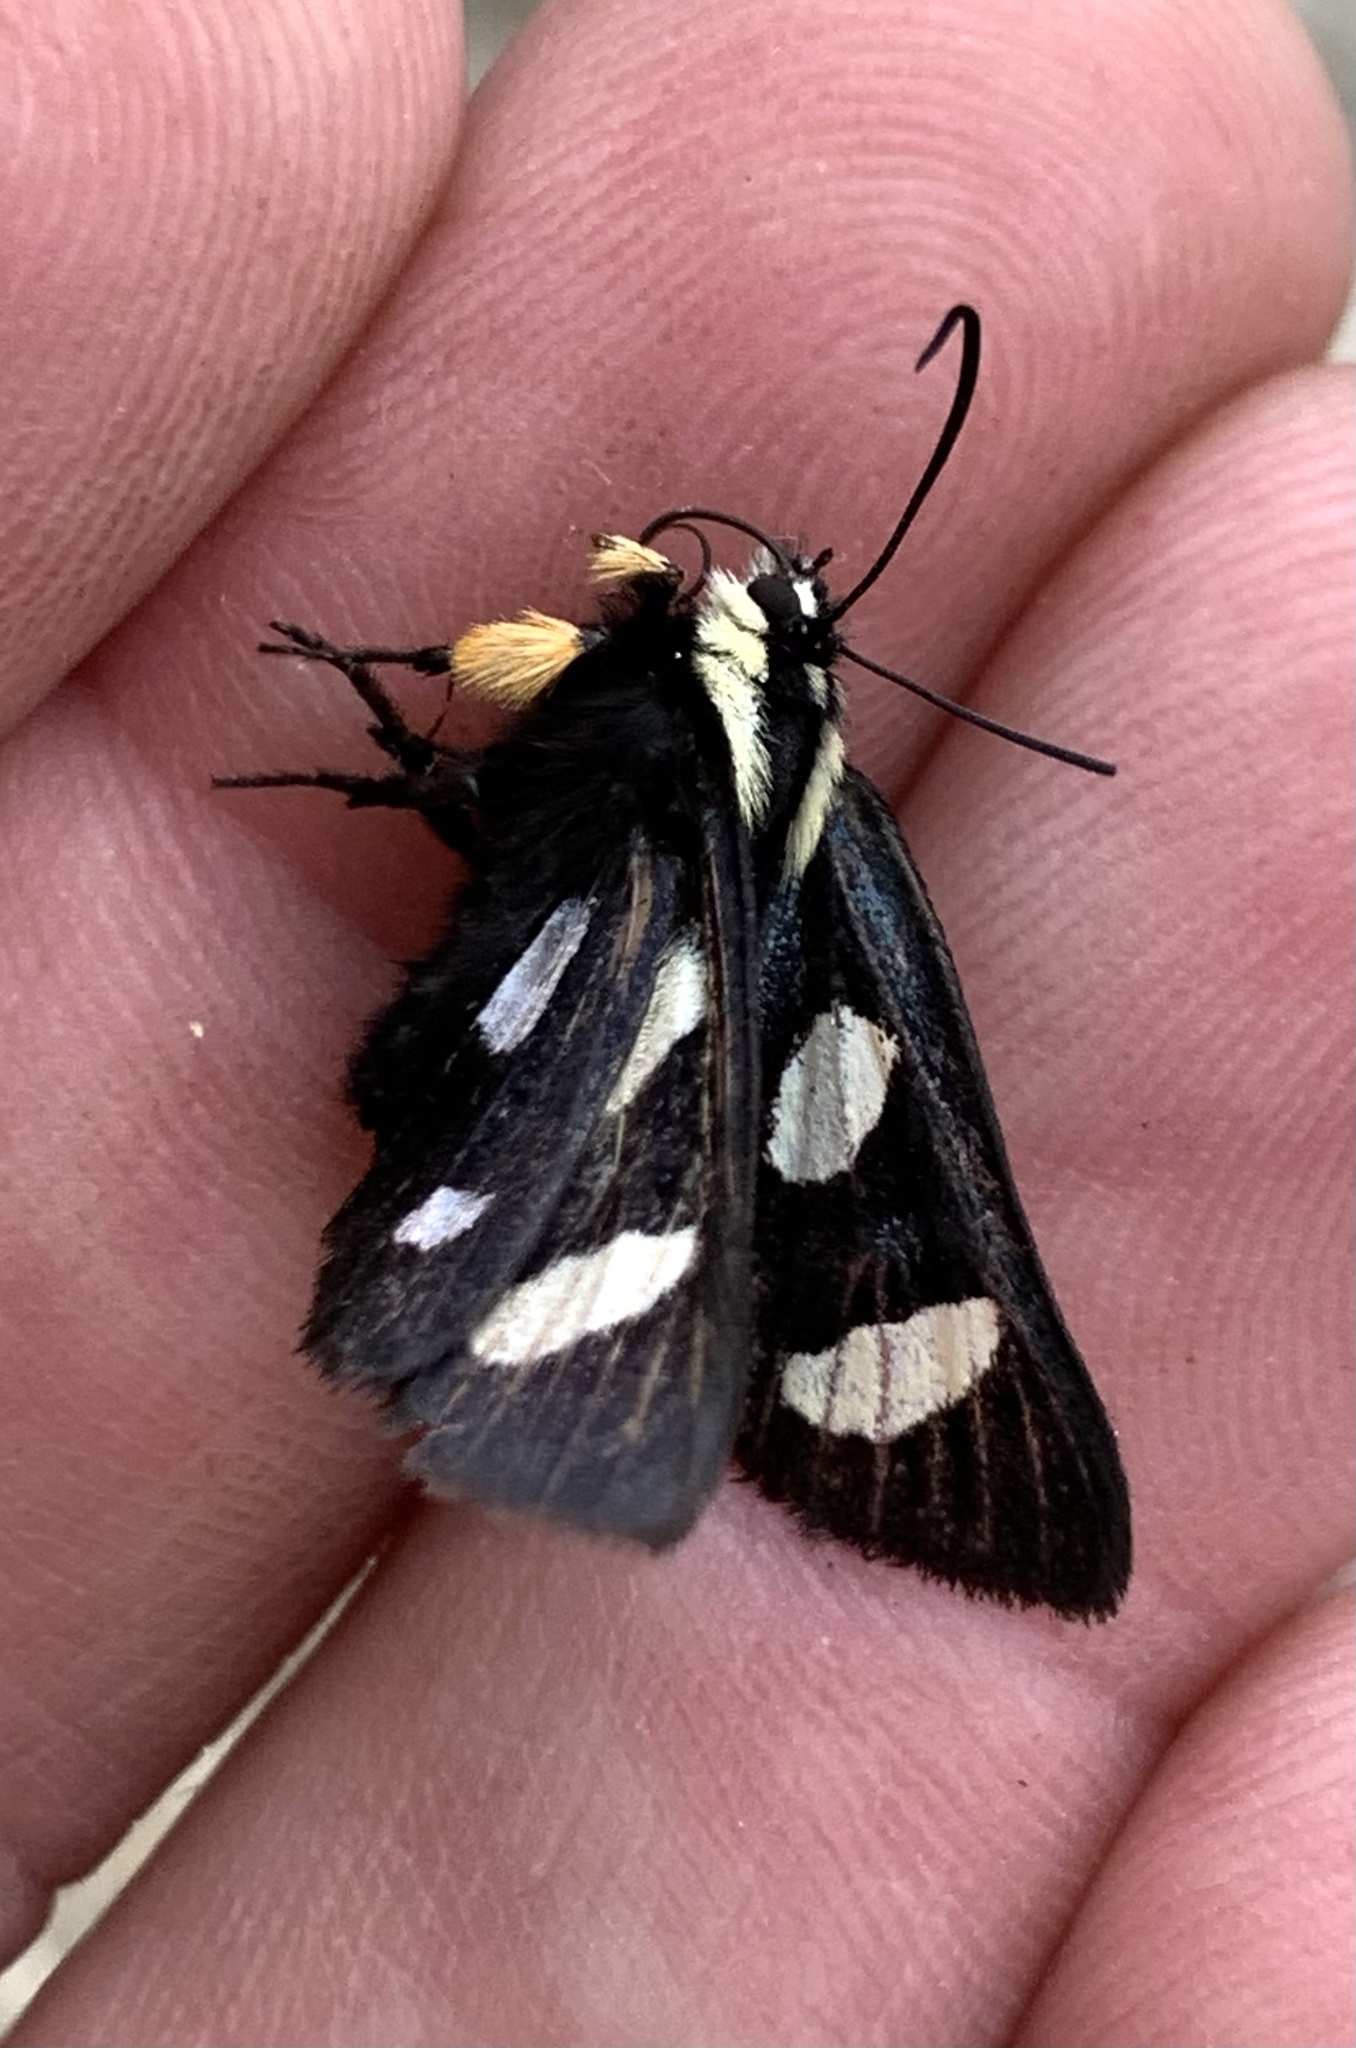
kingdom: Animalia
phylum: Arthropoda
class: Insecta
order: Lepidoptera
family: Noctuidae
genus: Alypia
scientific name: Alypia octomaculata
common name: Eight-spotted forester
